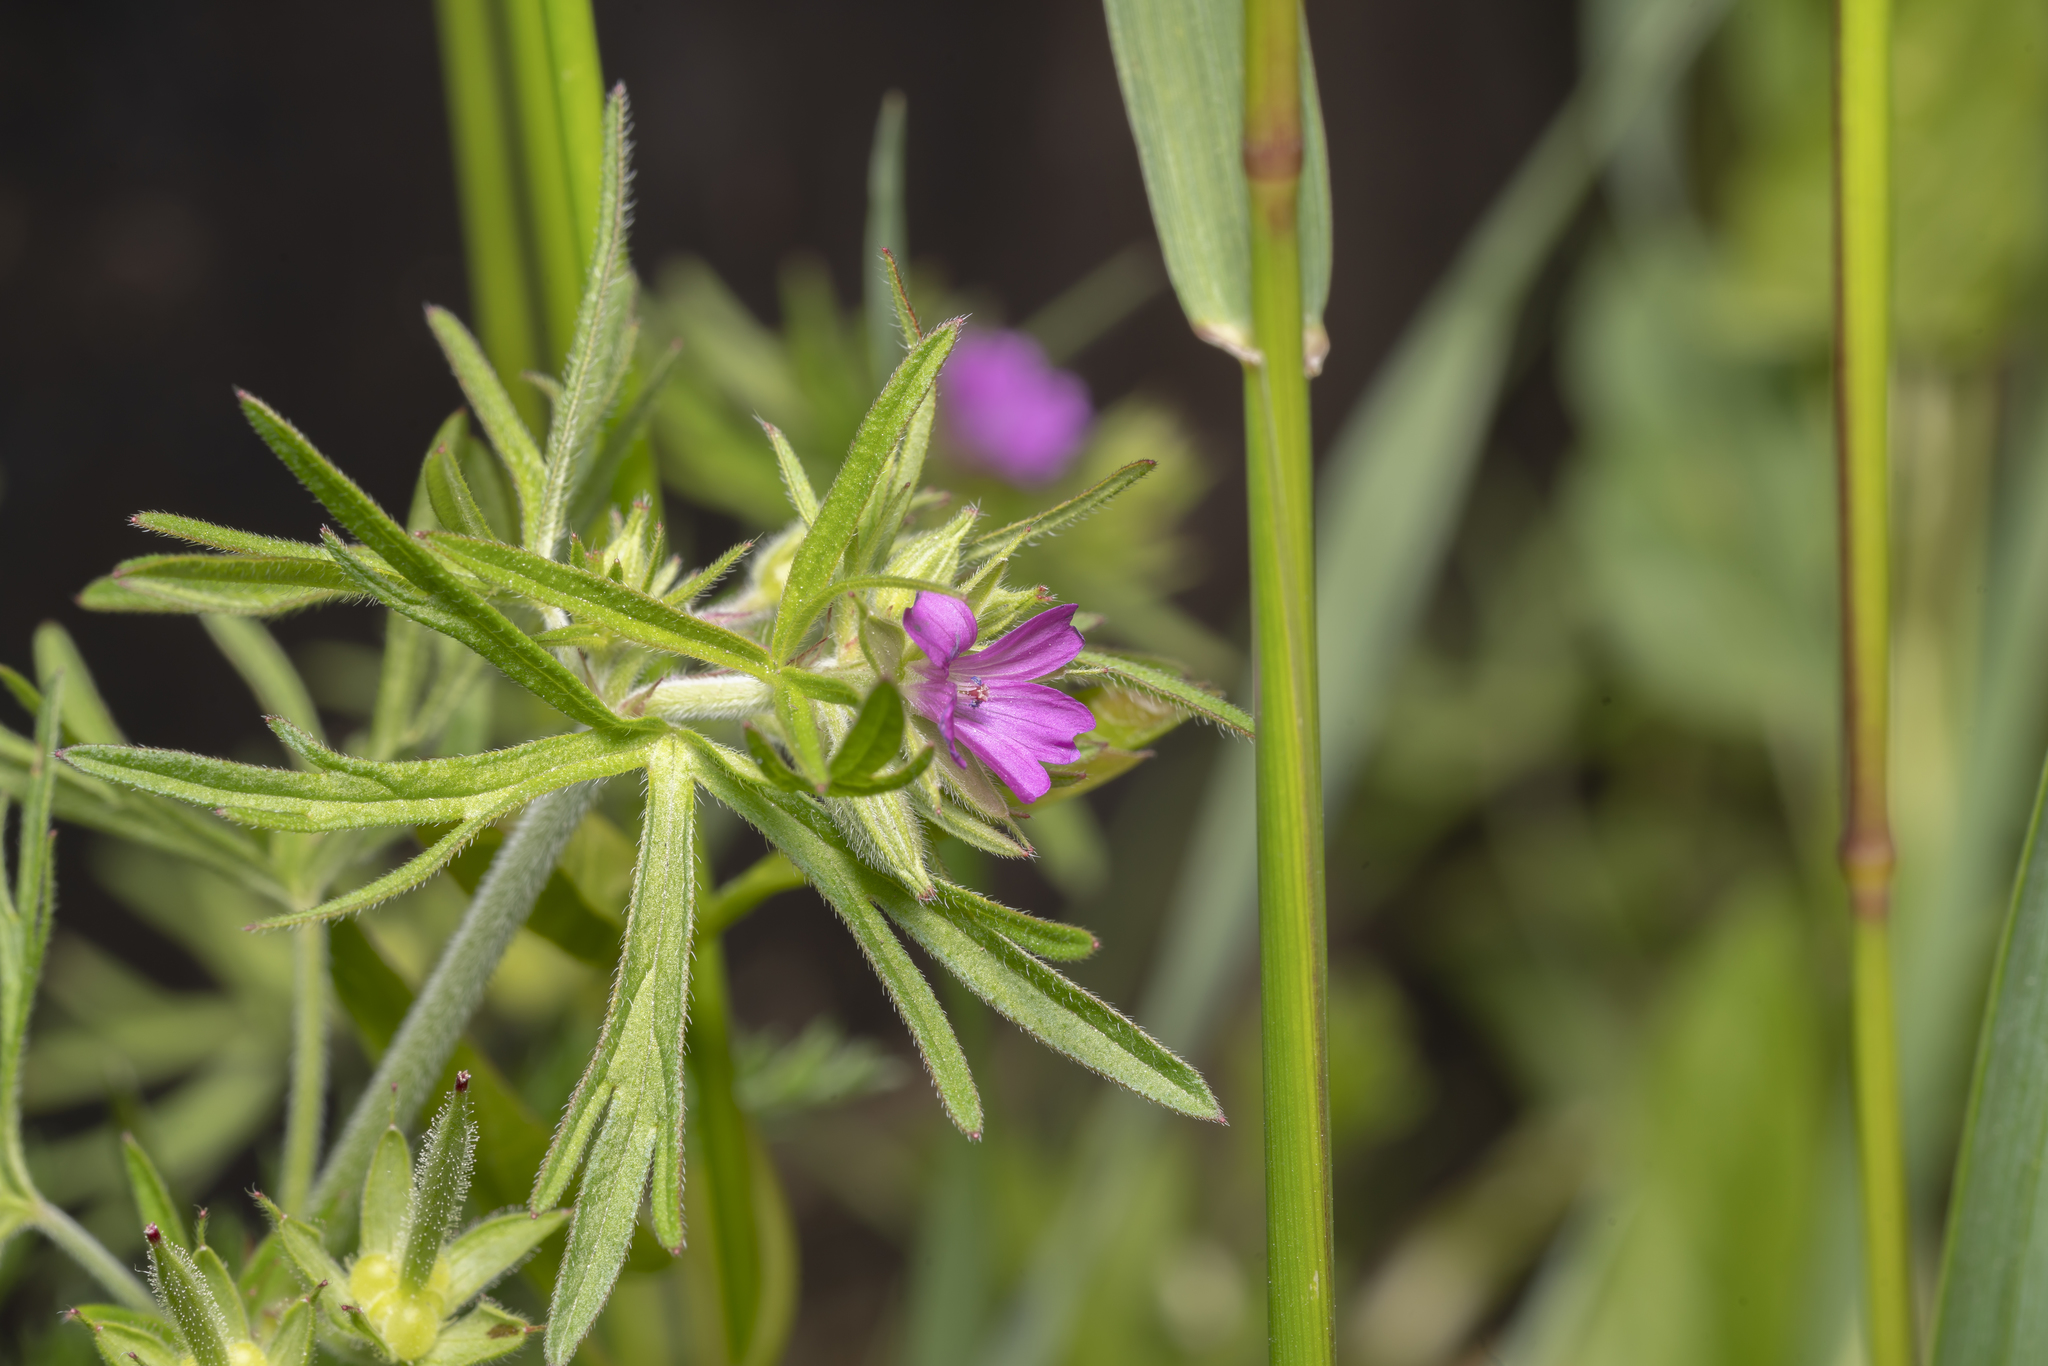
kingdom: Plantae
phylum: Tracheophyta
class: Magnoliopsida
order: Geraniales
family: Geraniaceae
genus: Geranium
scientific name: Geranium dissectum
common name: Cut-leaved crane's-bill
